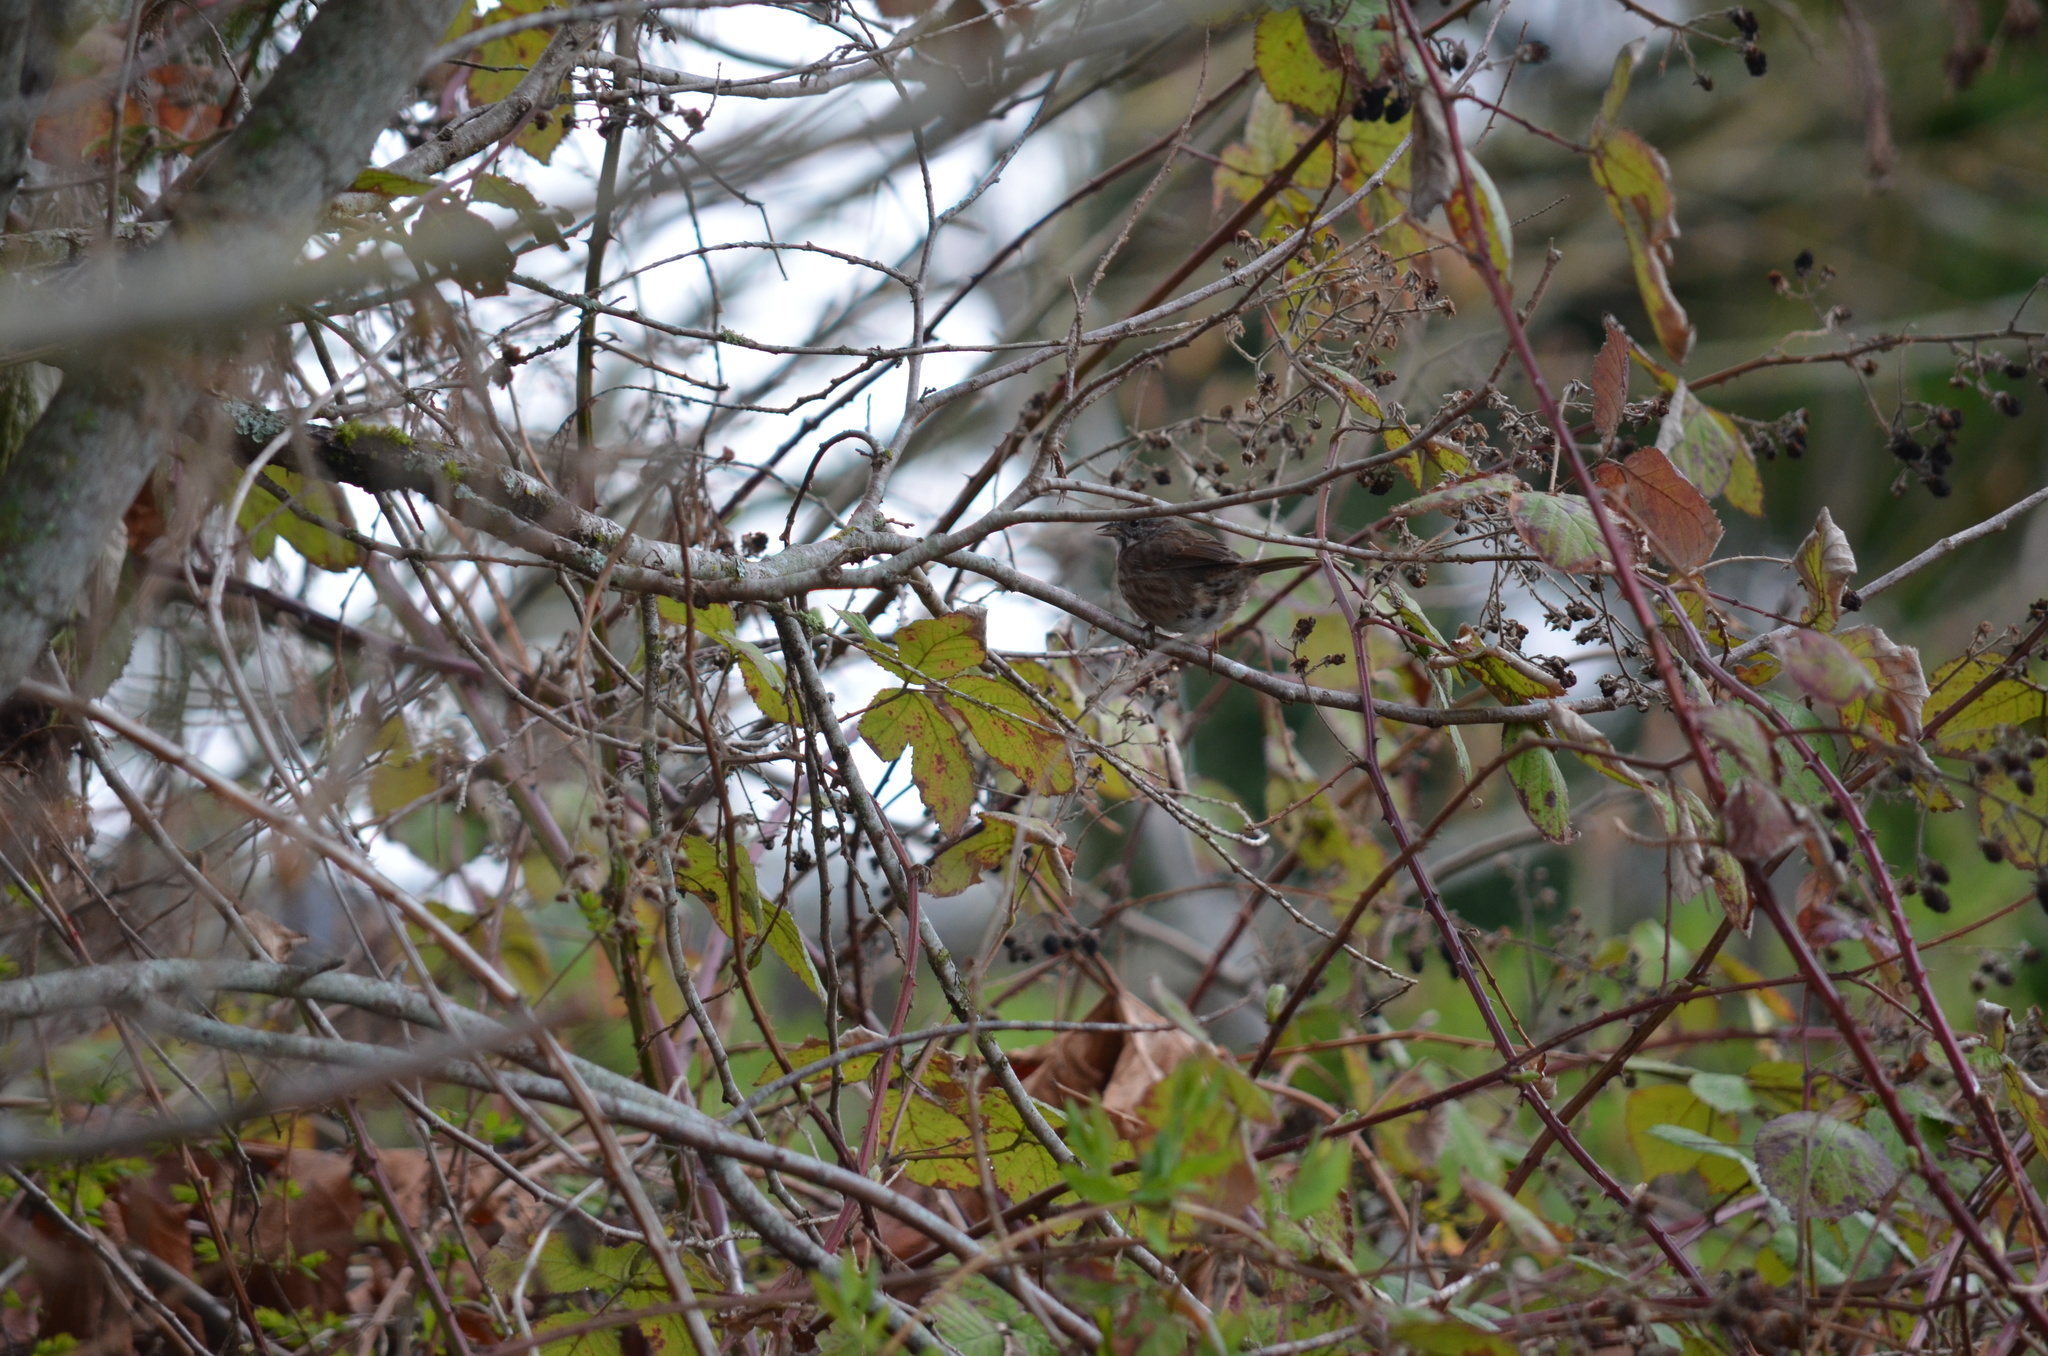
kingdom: Animalia
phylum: Chordata
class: Aves
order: Passeriformes
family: Passerellidae
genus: Melospiza
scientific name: Melospiza melodia
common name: Song sparrow
